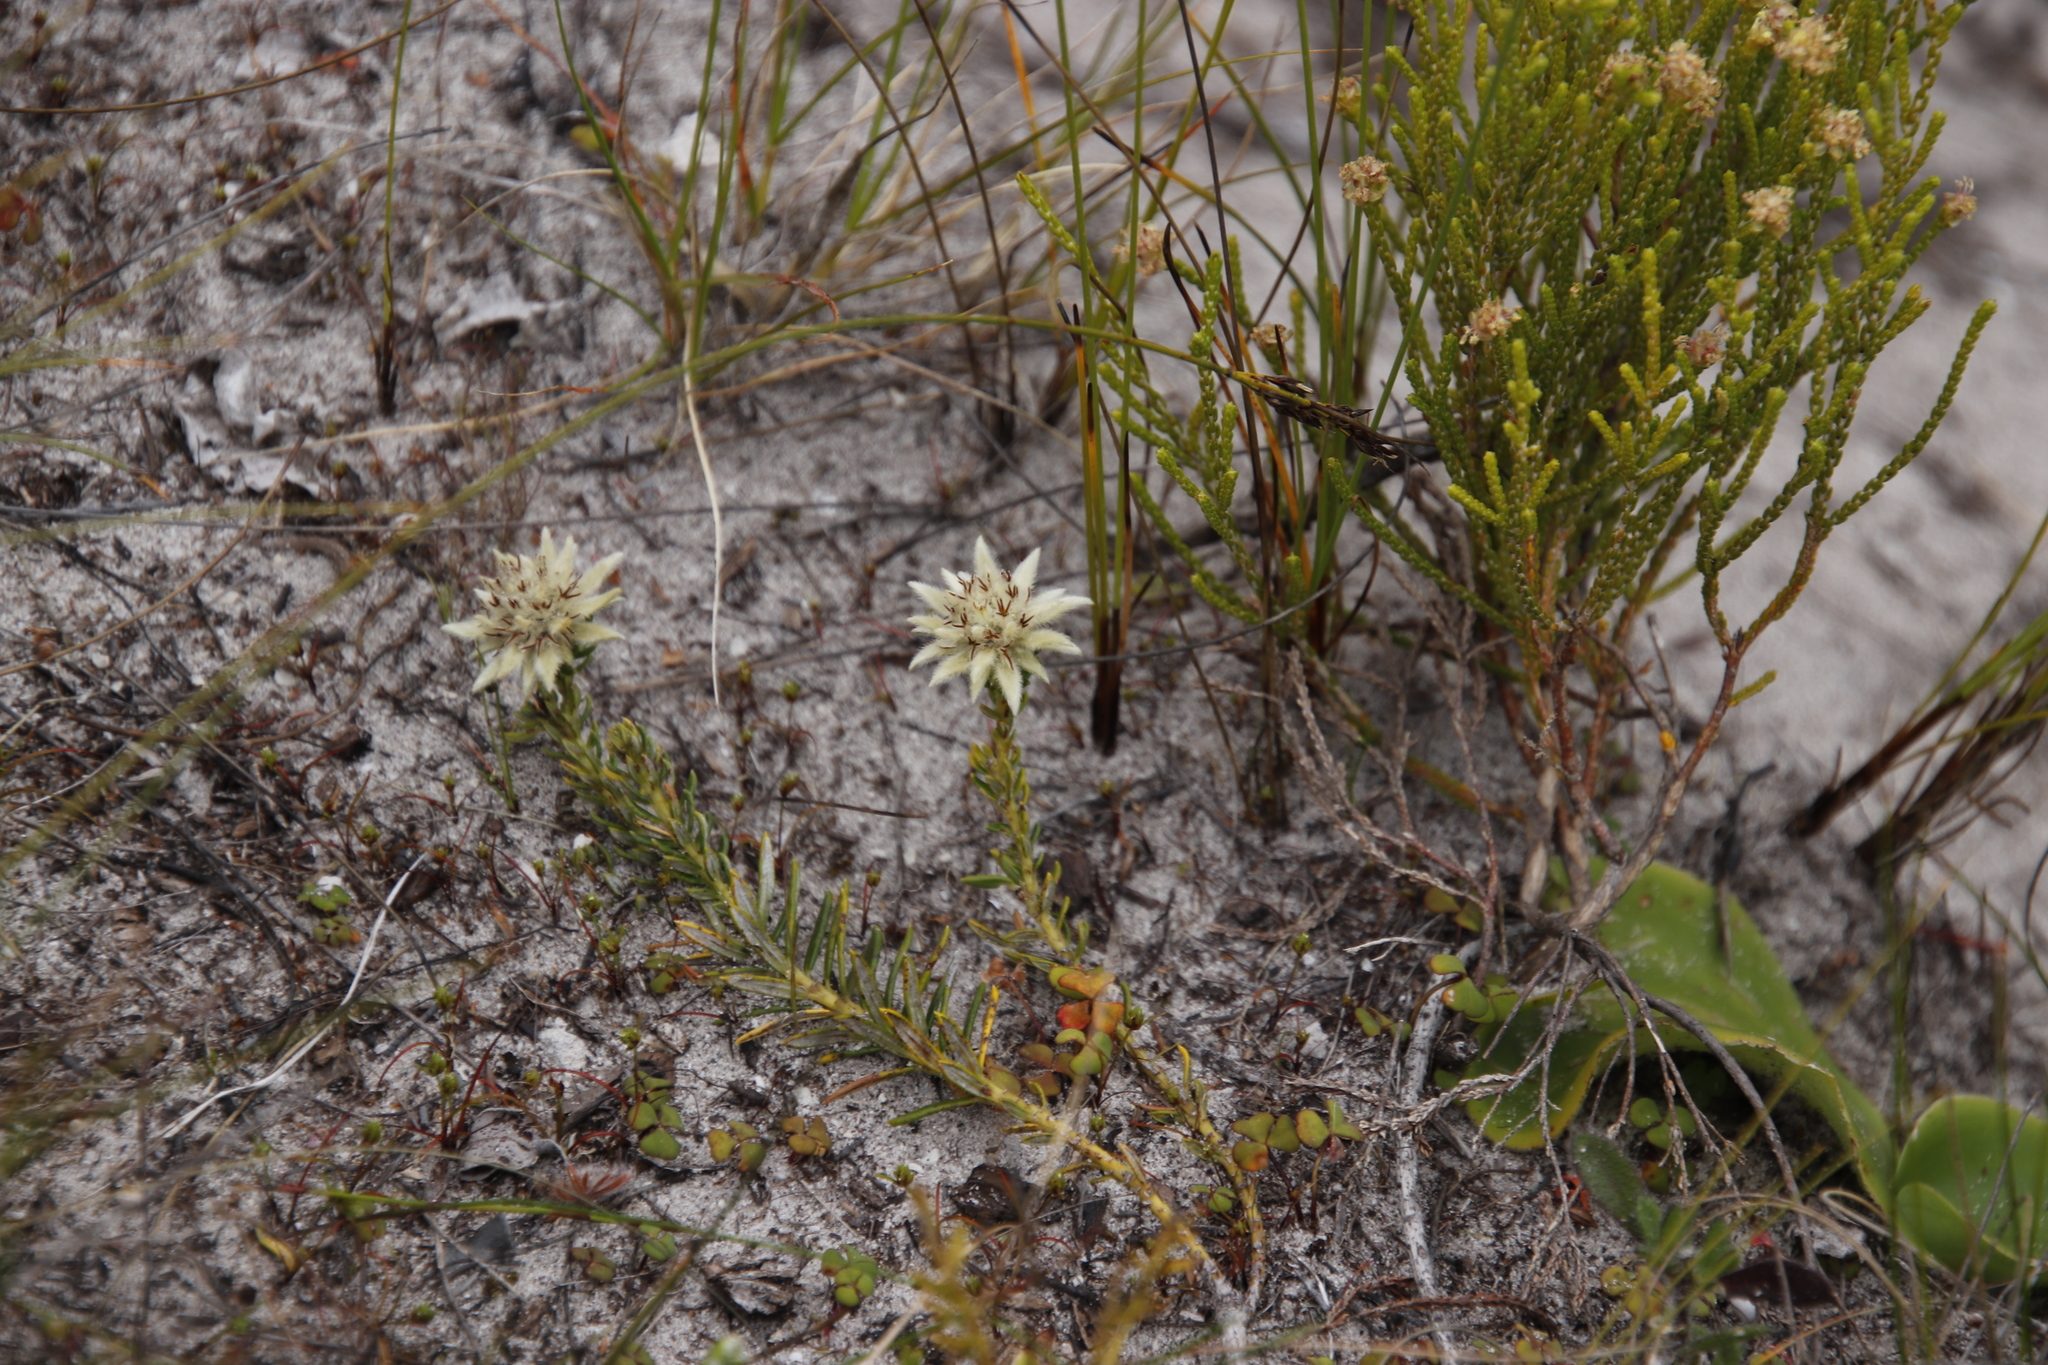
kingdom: Plantae
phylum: Tracheophyta
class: Magnoliopsida
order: Rosales
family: Rhamnaceae
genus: Phylica
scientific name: Phylica dodii
